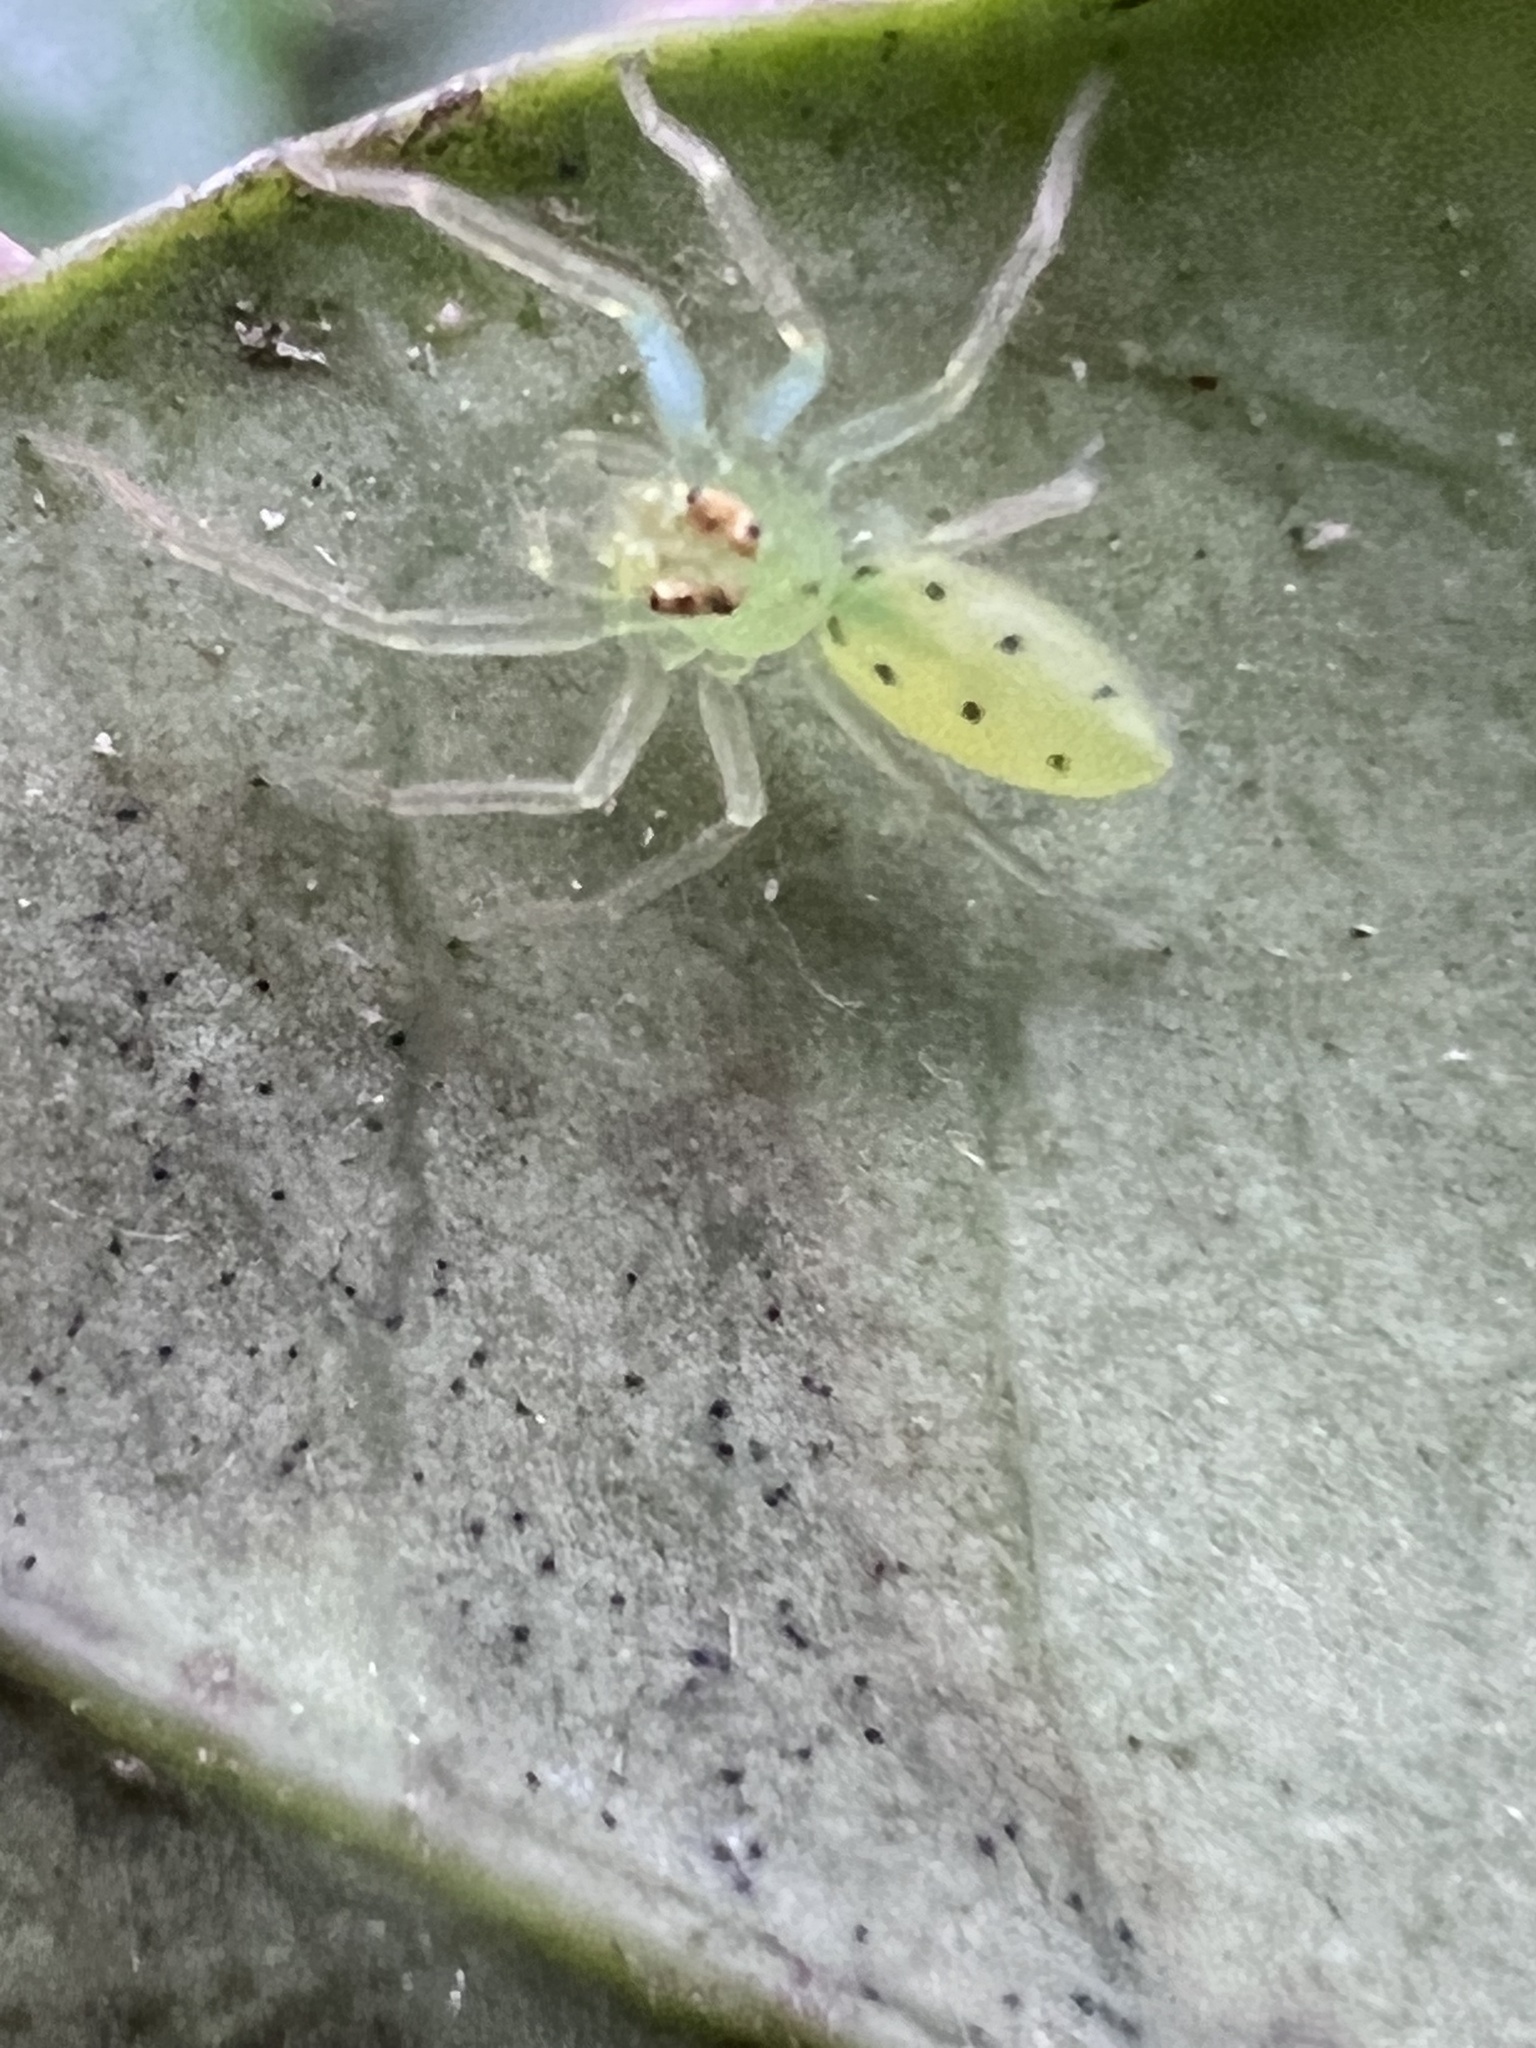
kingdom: Animalia
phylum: Arthropoda
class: Arachnida
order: Araneae
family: Salticidae
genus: Lyssomanes
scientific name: Lyssomanes viridis
